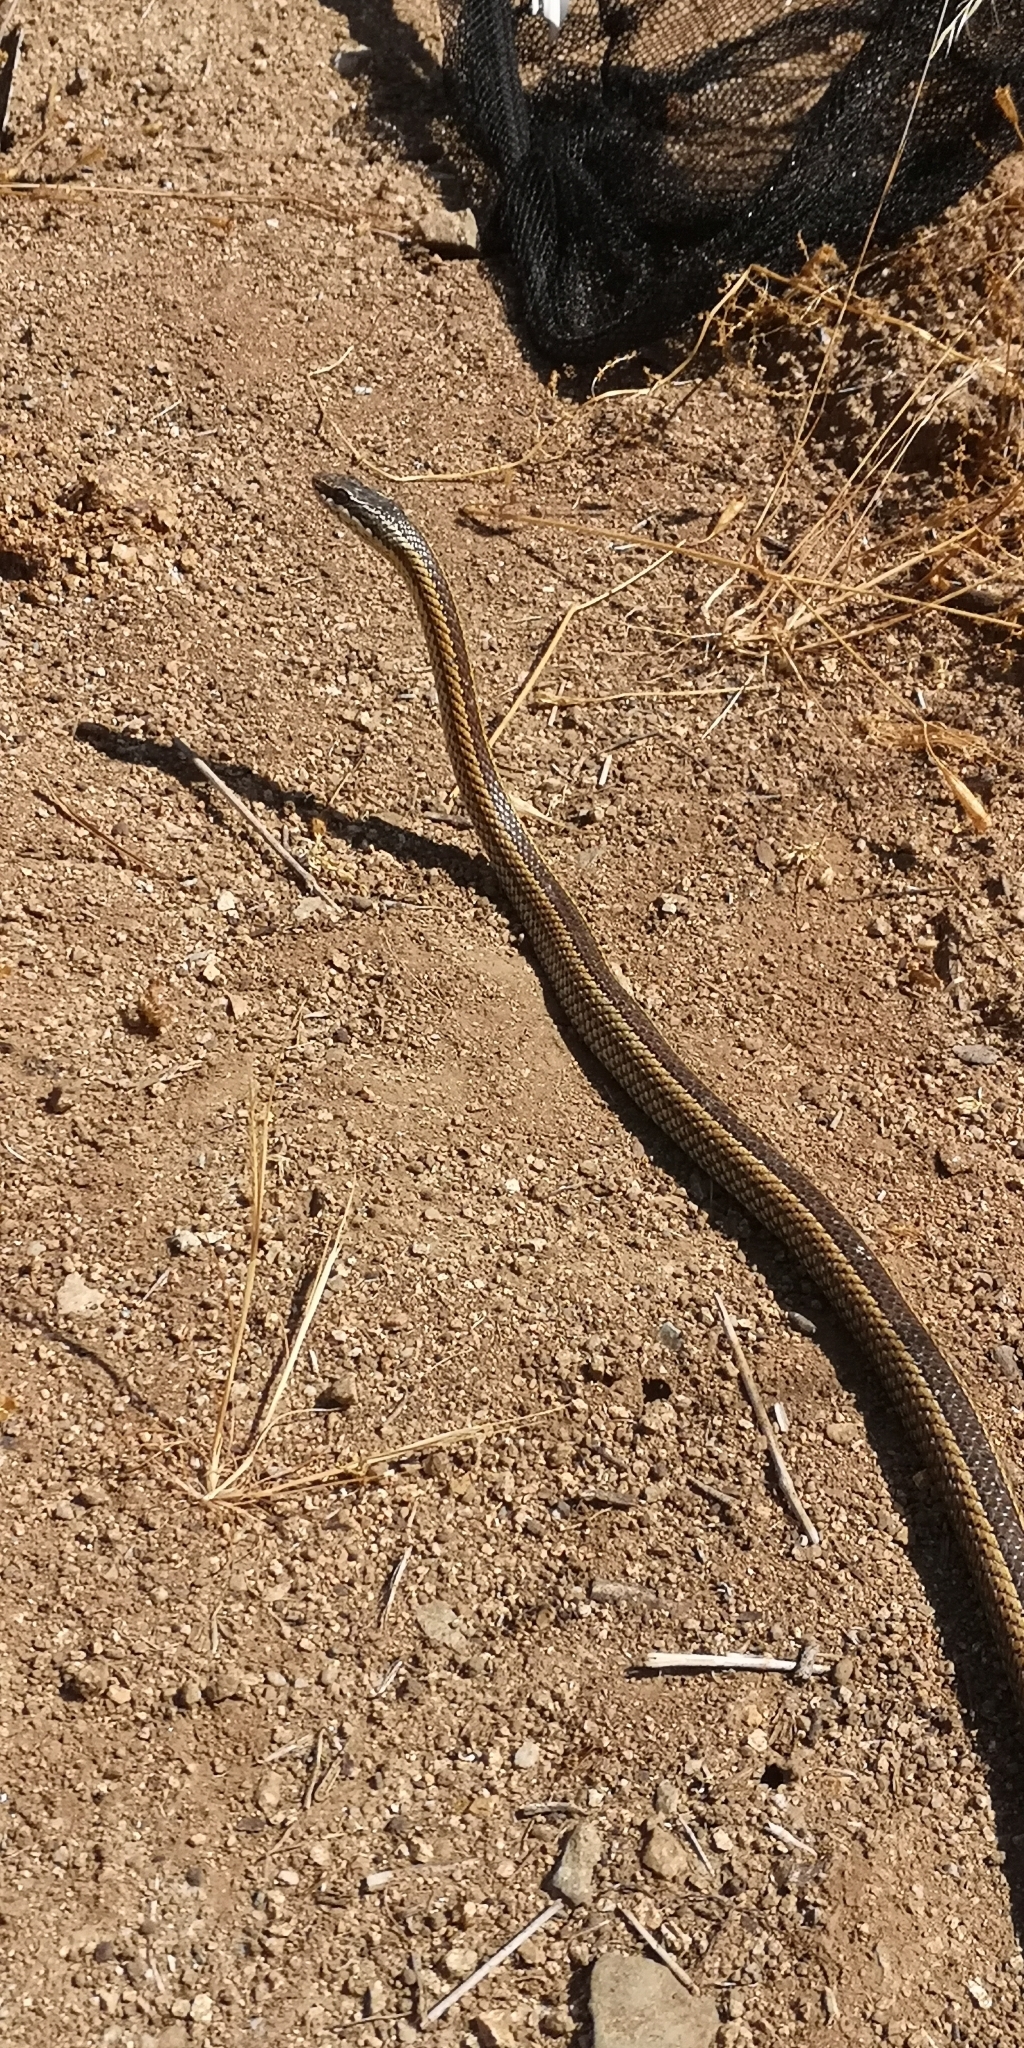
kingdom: Animalia
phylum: Chordata
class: Squamata
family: Colubridae
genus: Philodryas
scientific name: Philodryas chamissonis
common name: Chilean green racer
